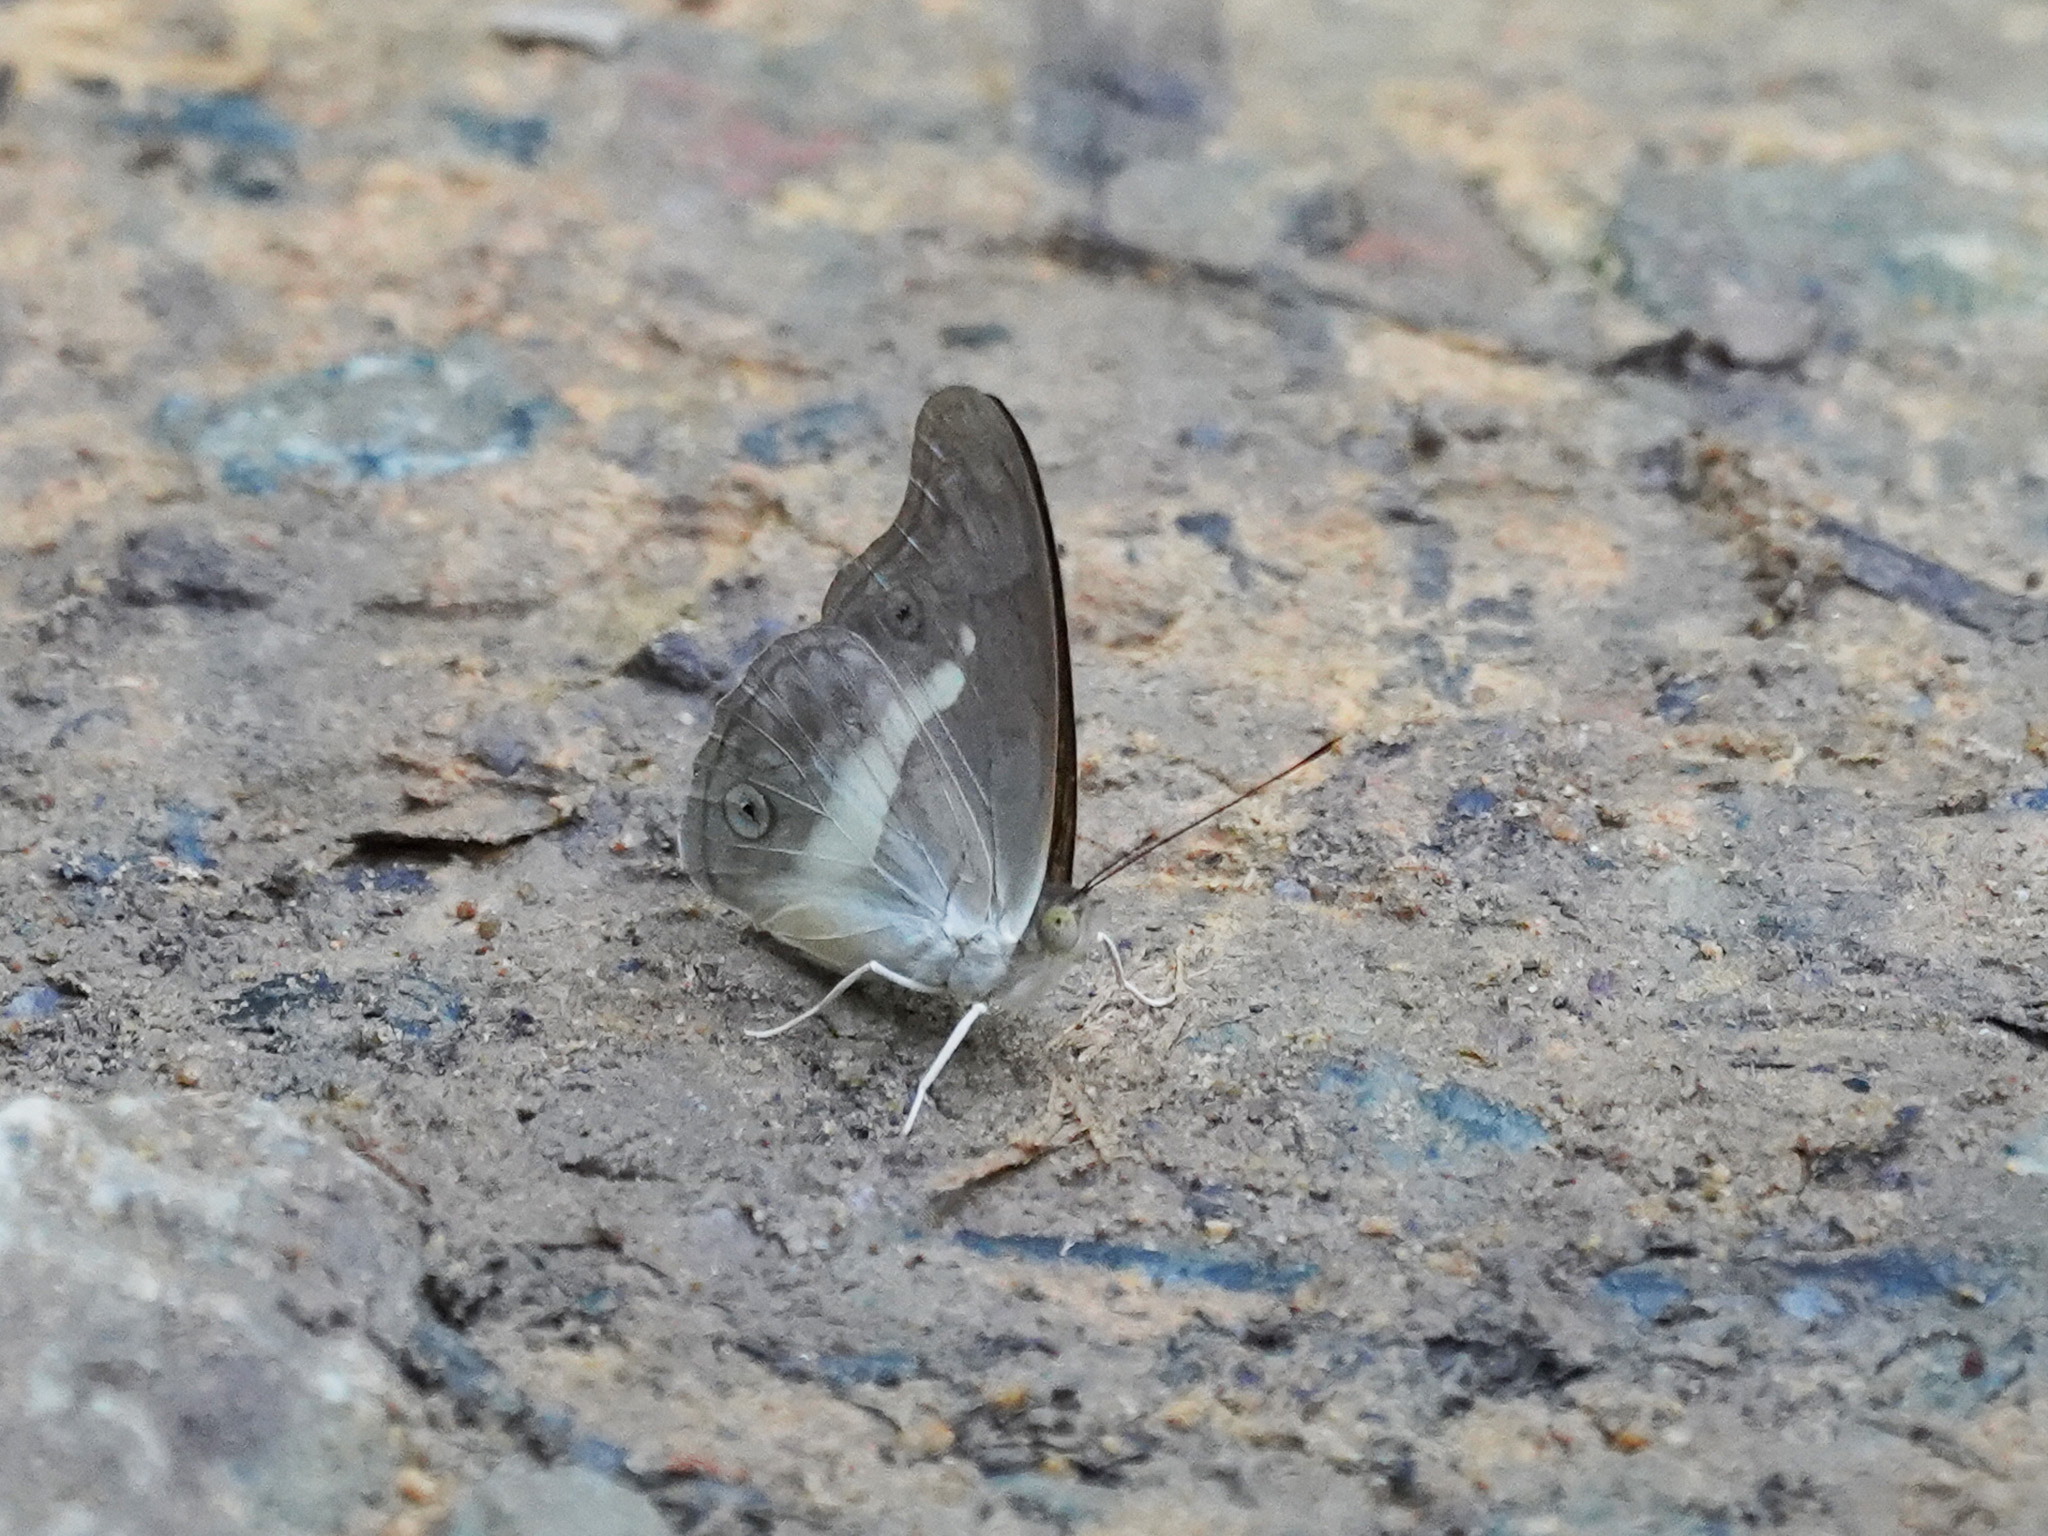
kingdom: Animalia
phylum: Arthropoda
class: Insecta
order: Lepidoptera
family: Nymphalidae
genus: Eulaceura
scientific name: Eulaceura osteria
